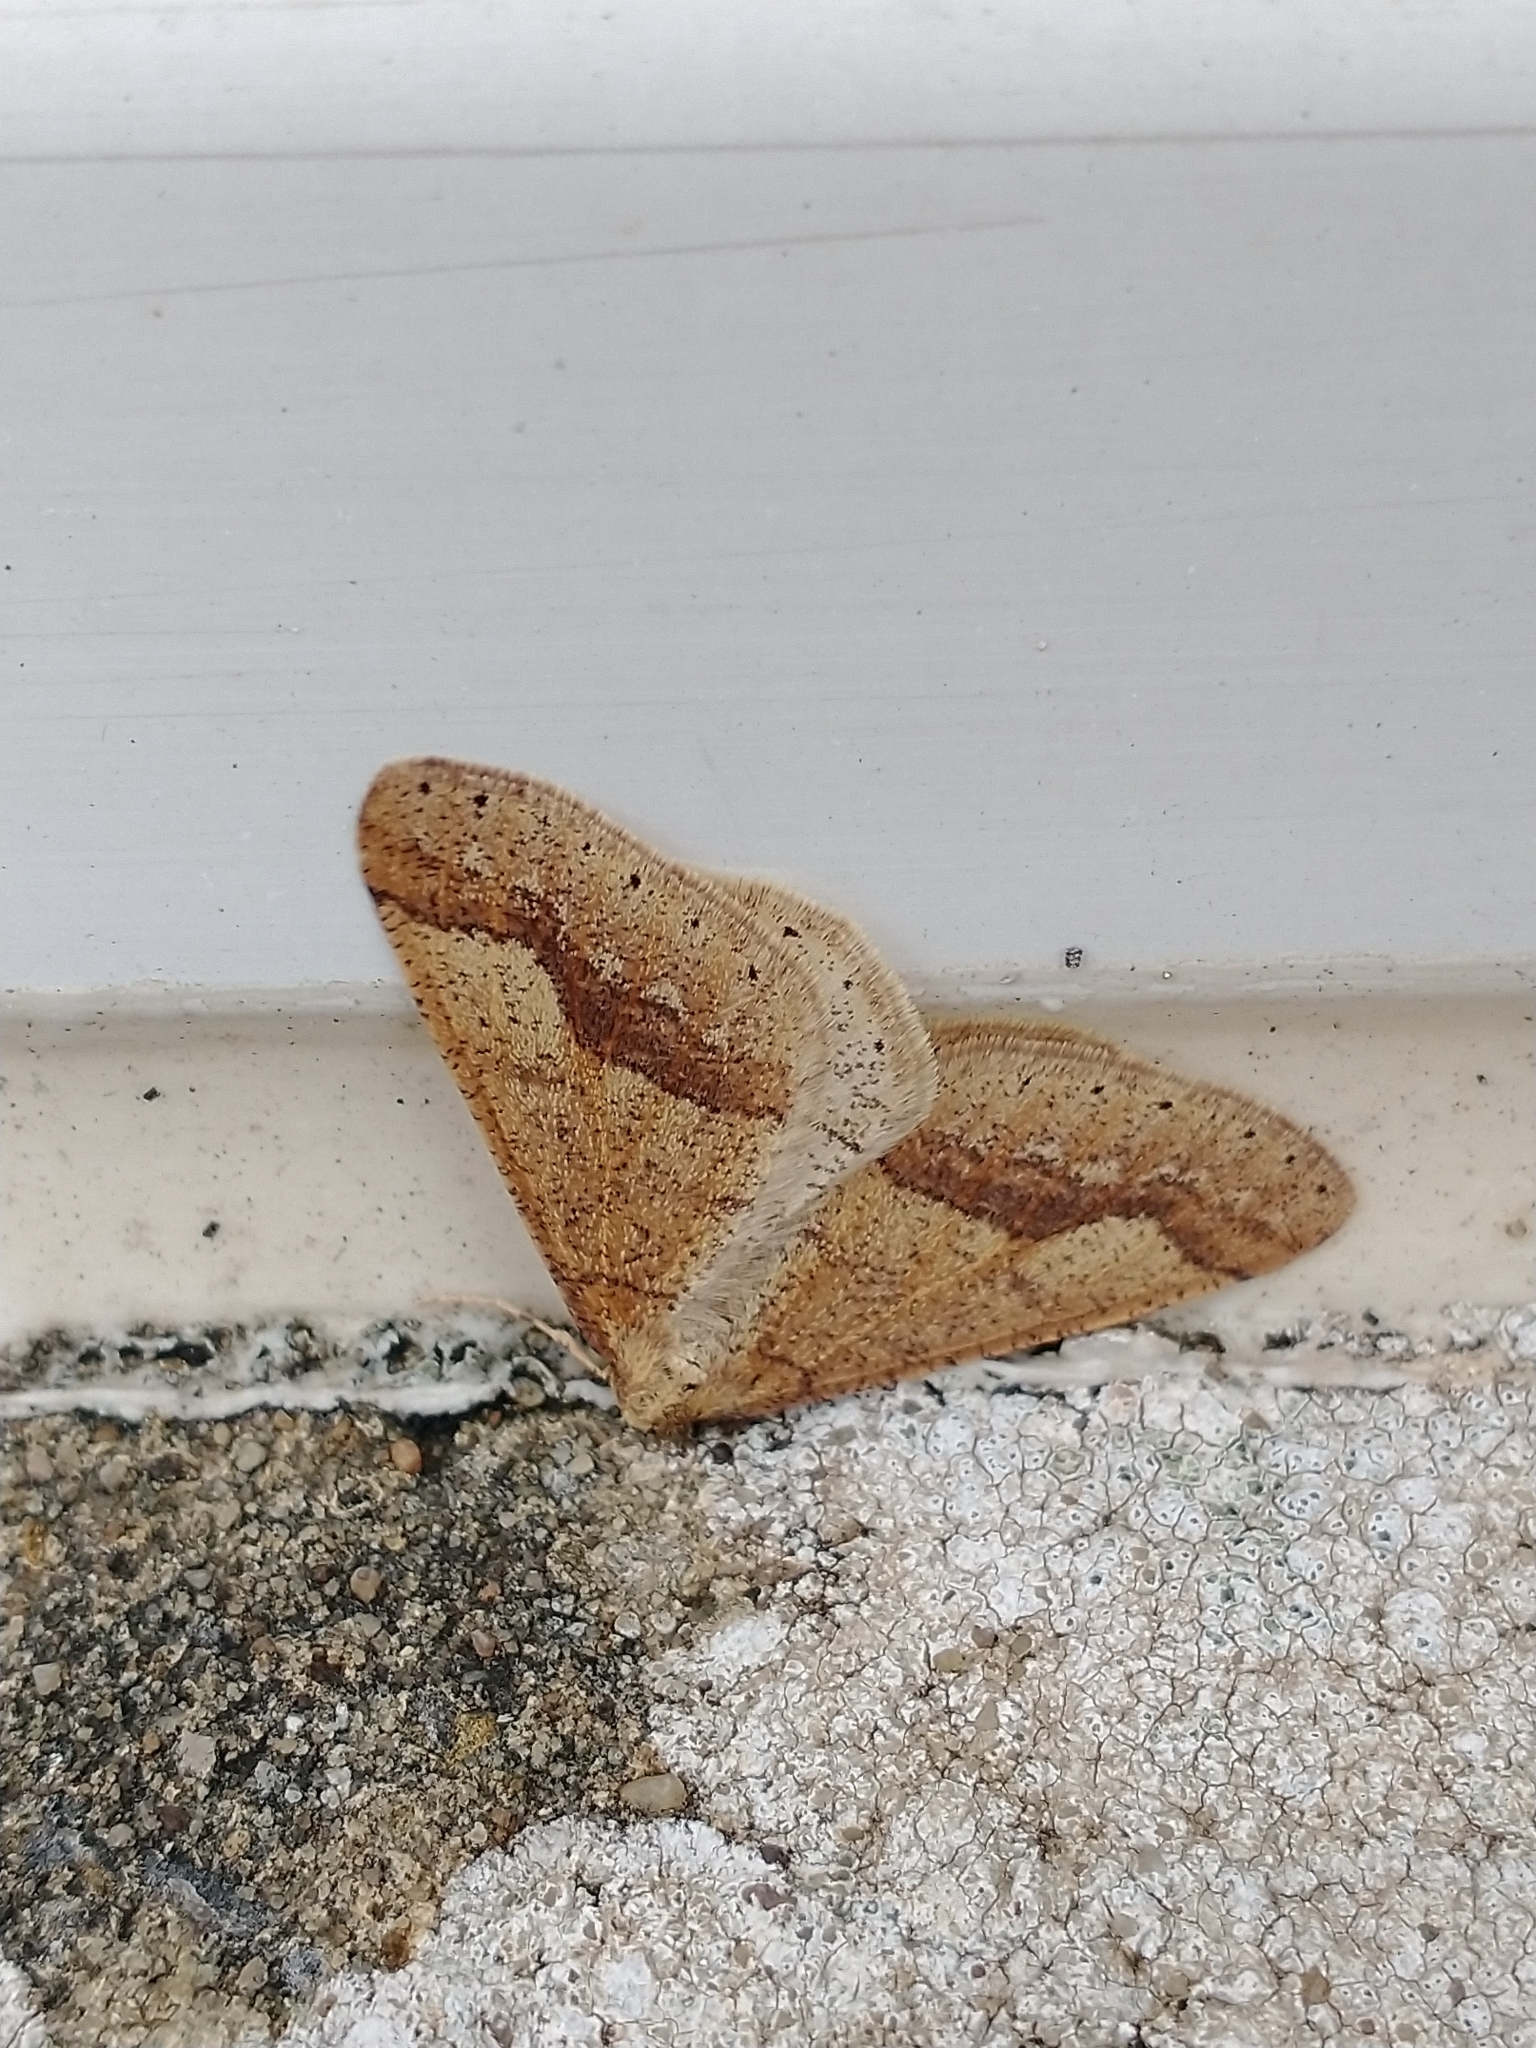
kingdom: Animalia
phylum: Arthropoda
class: Insecta
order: Lepidoptera
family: Geometridae
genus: Agriopis
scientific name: Agriopis marginaria
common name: Dotted border
